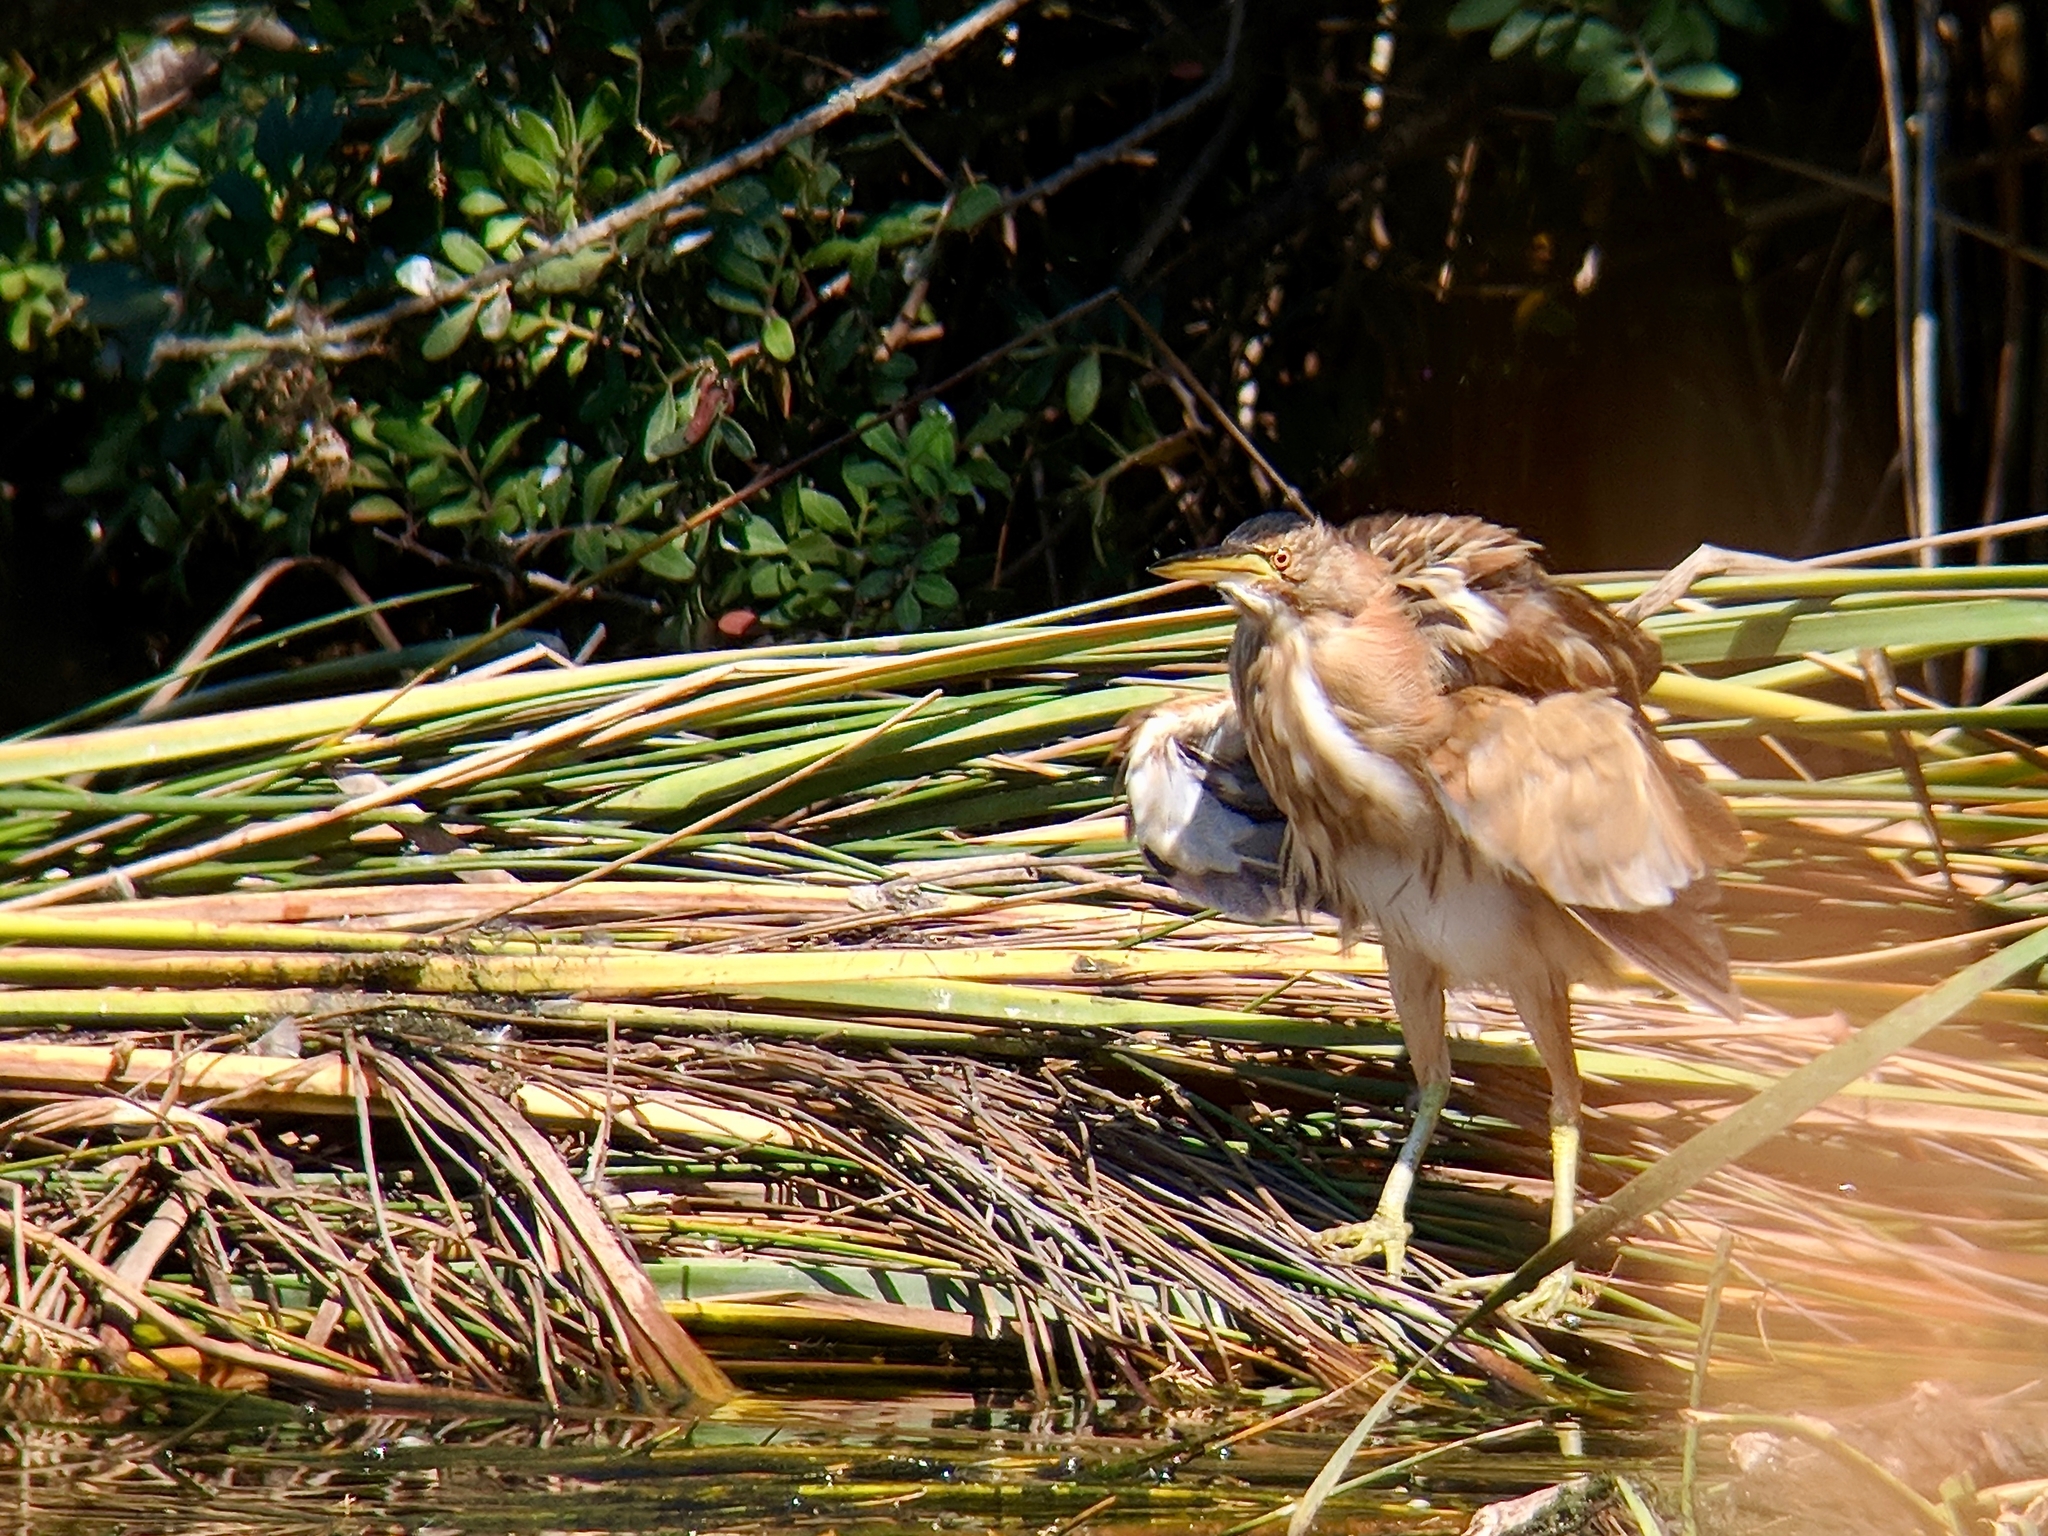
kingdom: Animalia
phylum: Chordata
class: Aves
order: Pelecaniformes
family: Ardeidae
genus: Ixobrychus
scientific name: Ixobrychus minutus
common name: Little bittern
